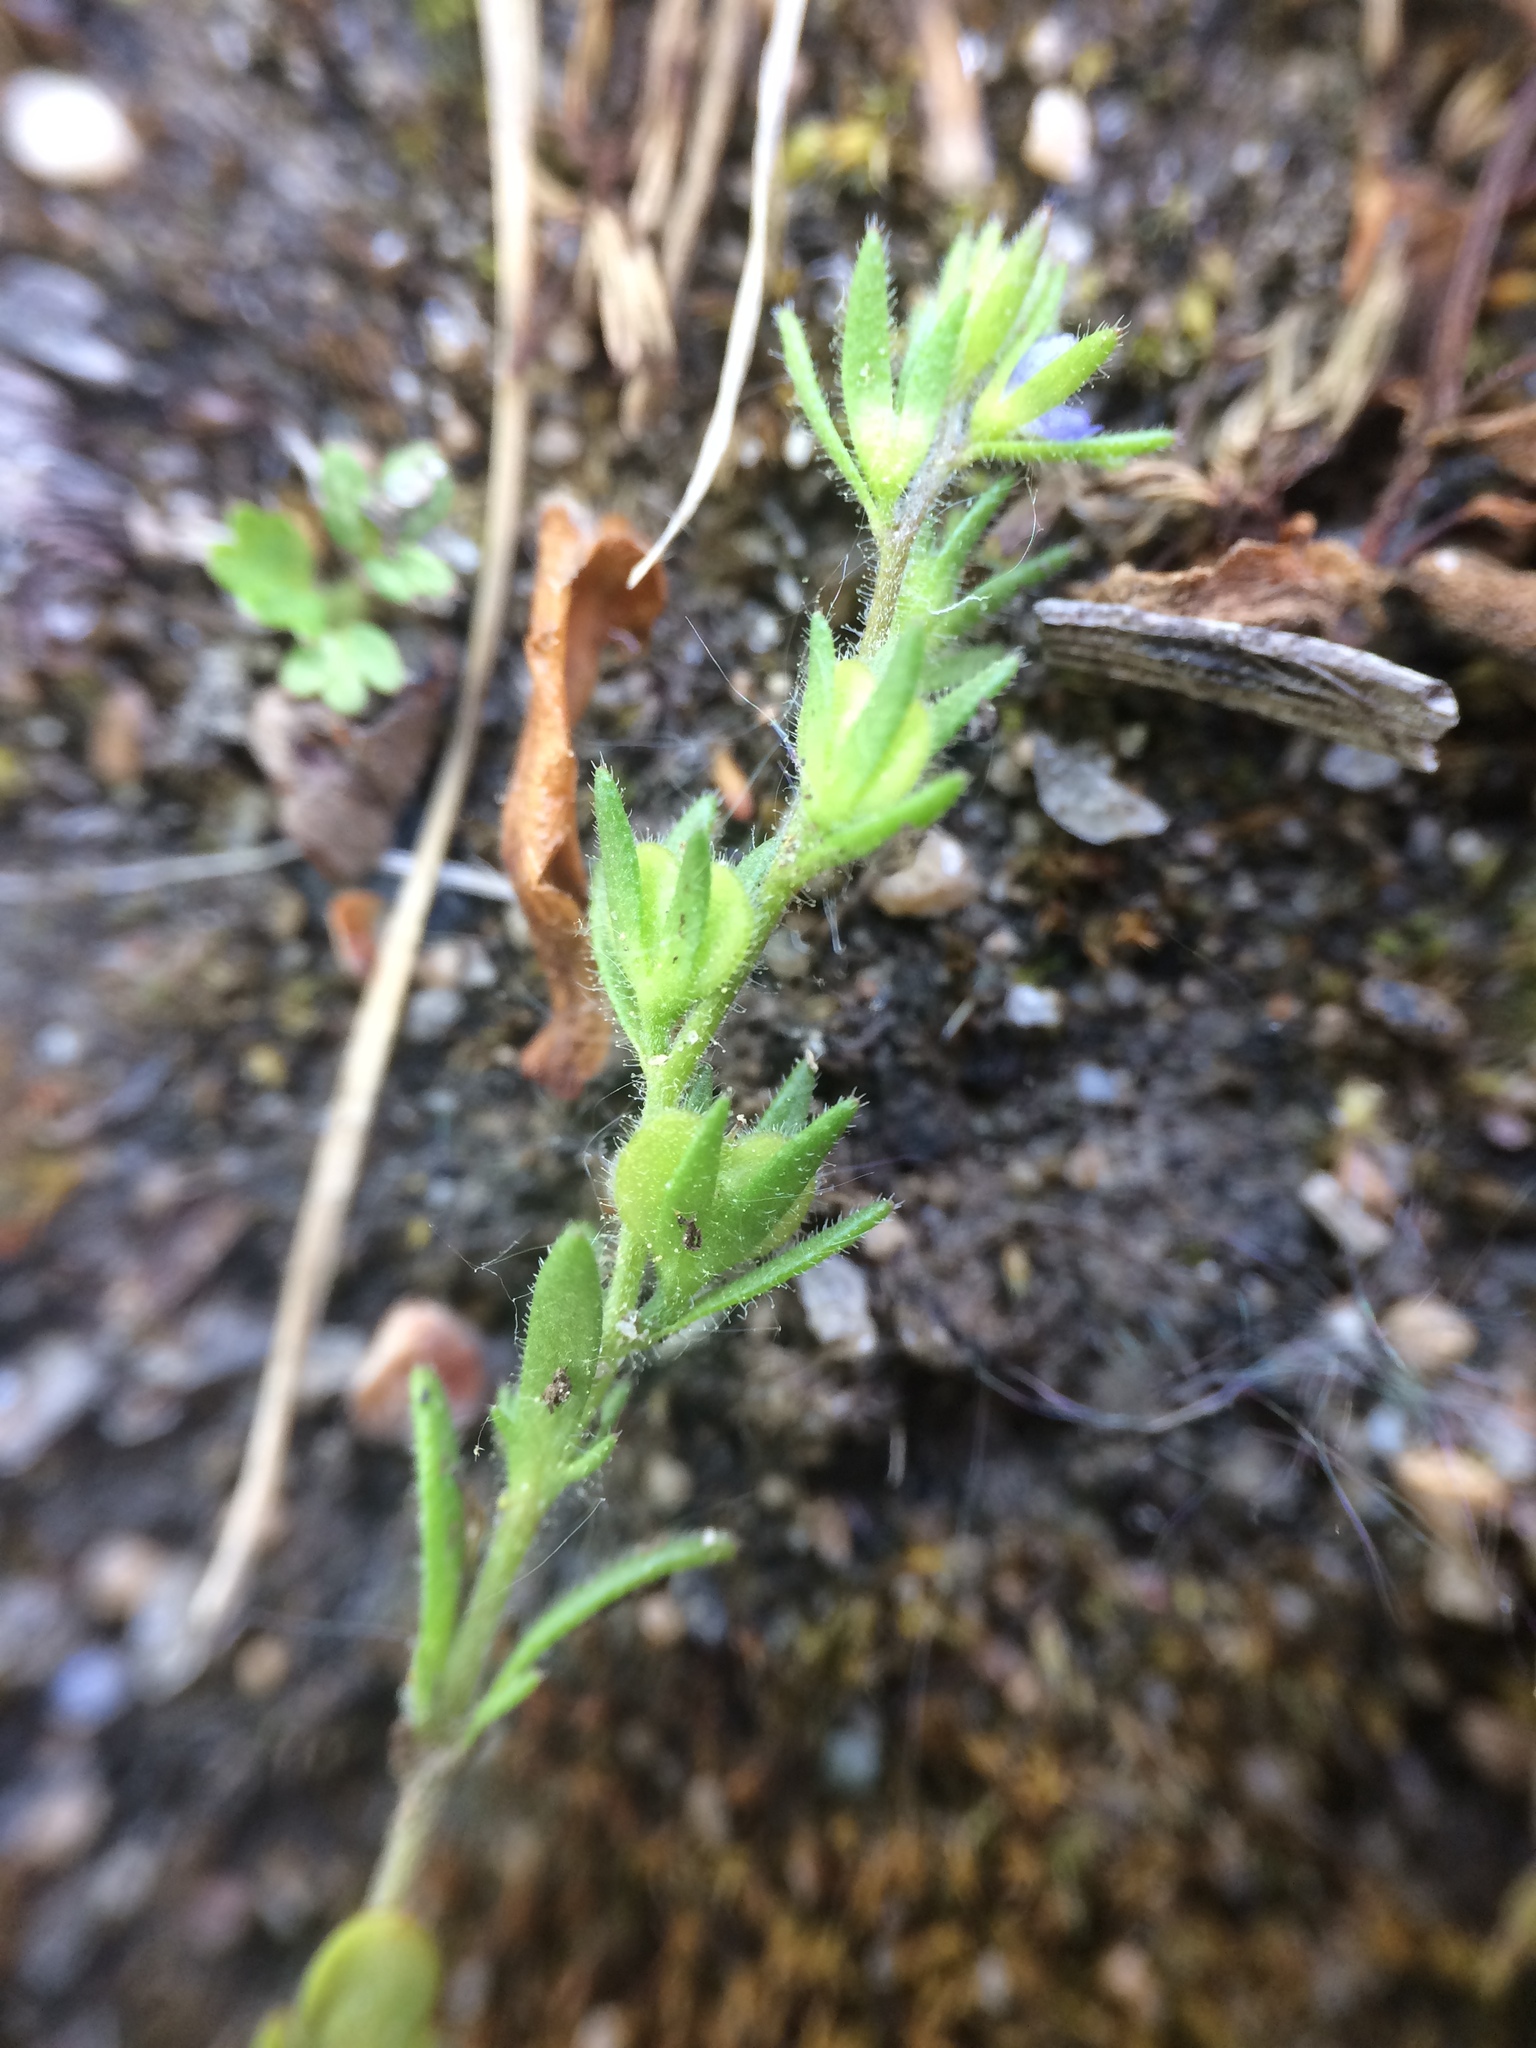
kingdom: Plantae
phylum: Tracheophyta
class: Magnoliopsida
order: Lamiales
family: Plantaginaceae
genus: Veronica
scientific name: Veronica verna
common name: Spring speedwell
